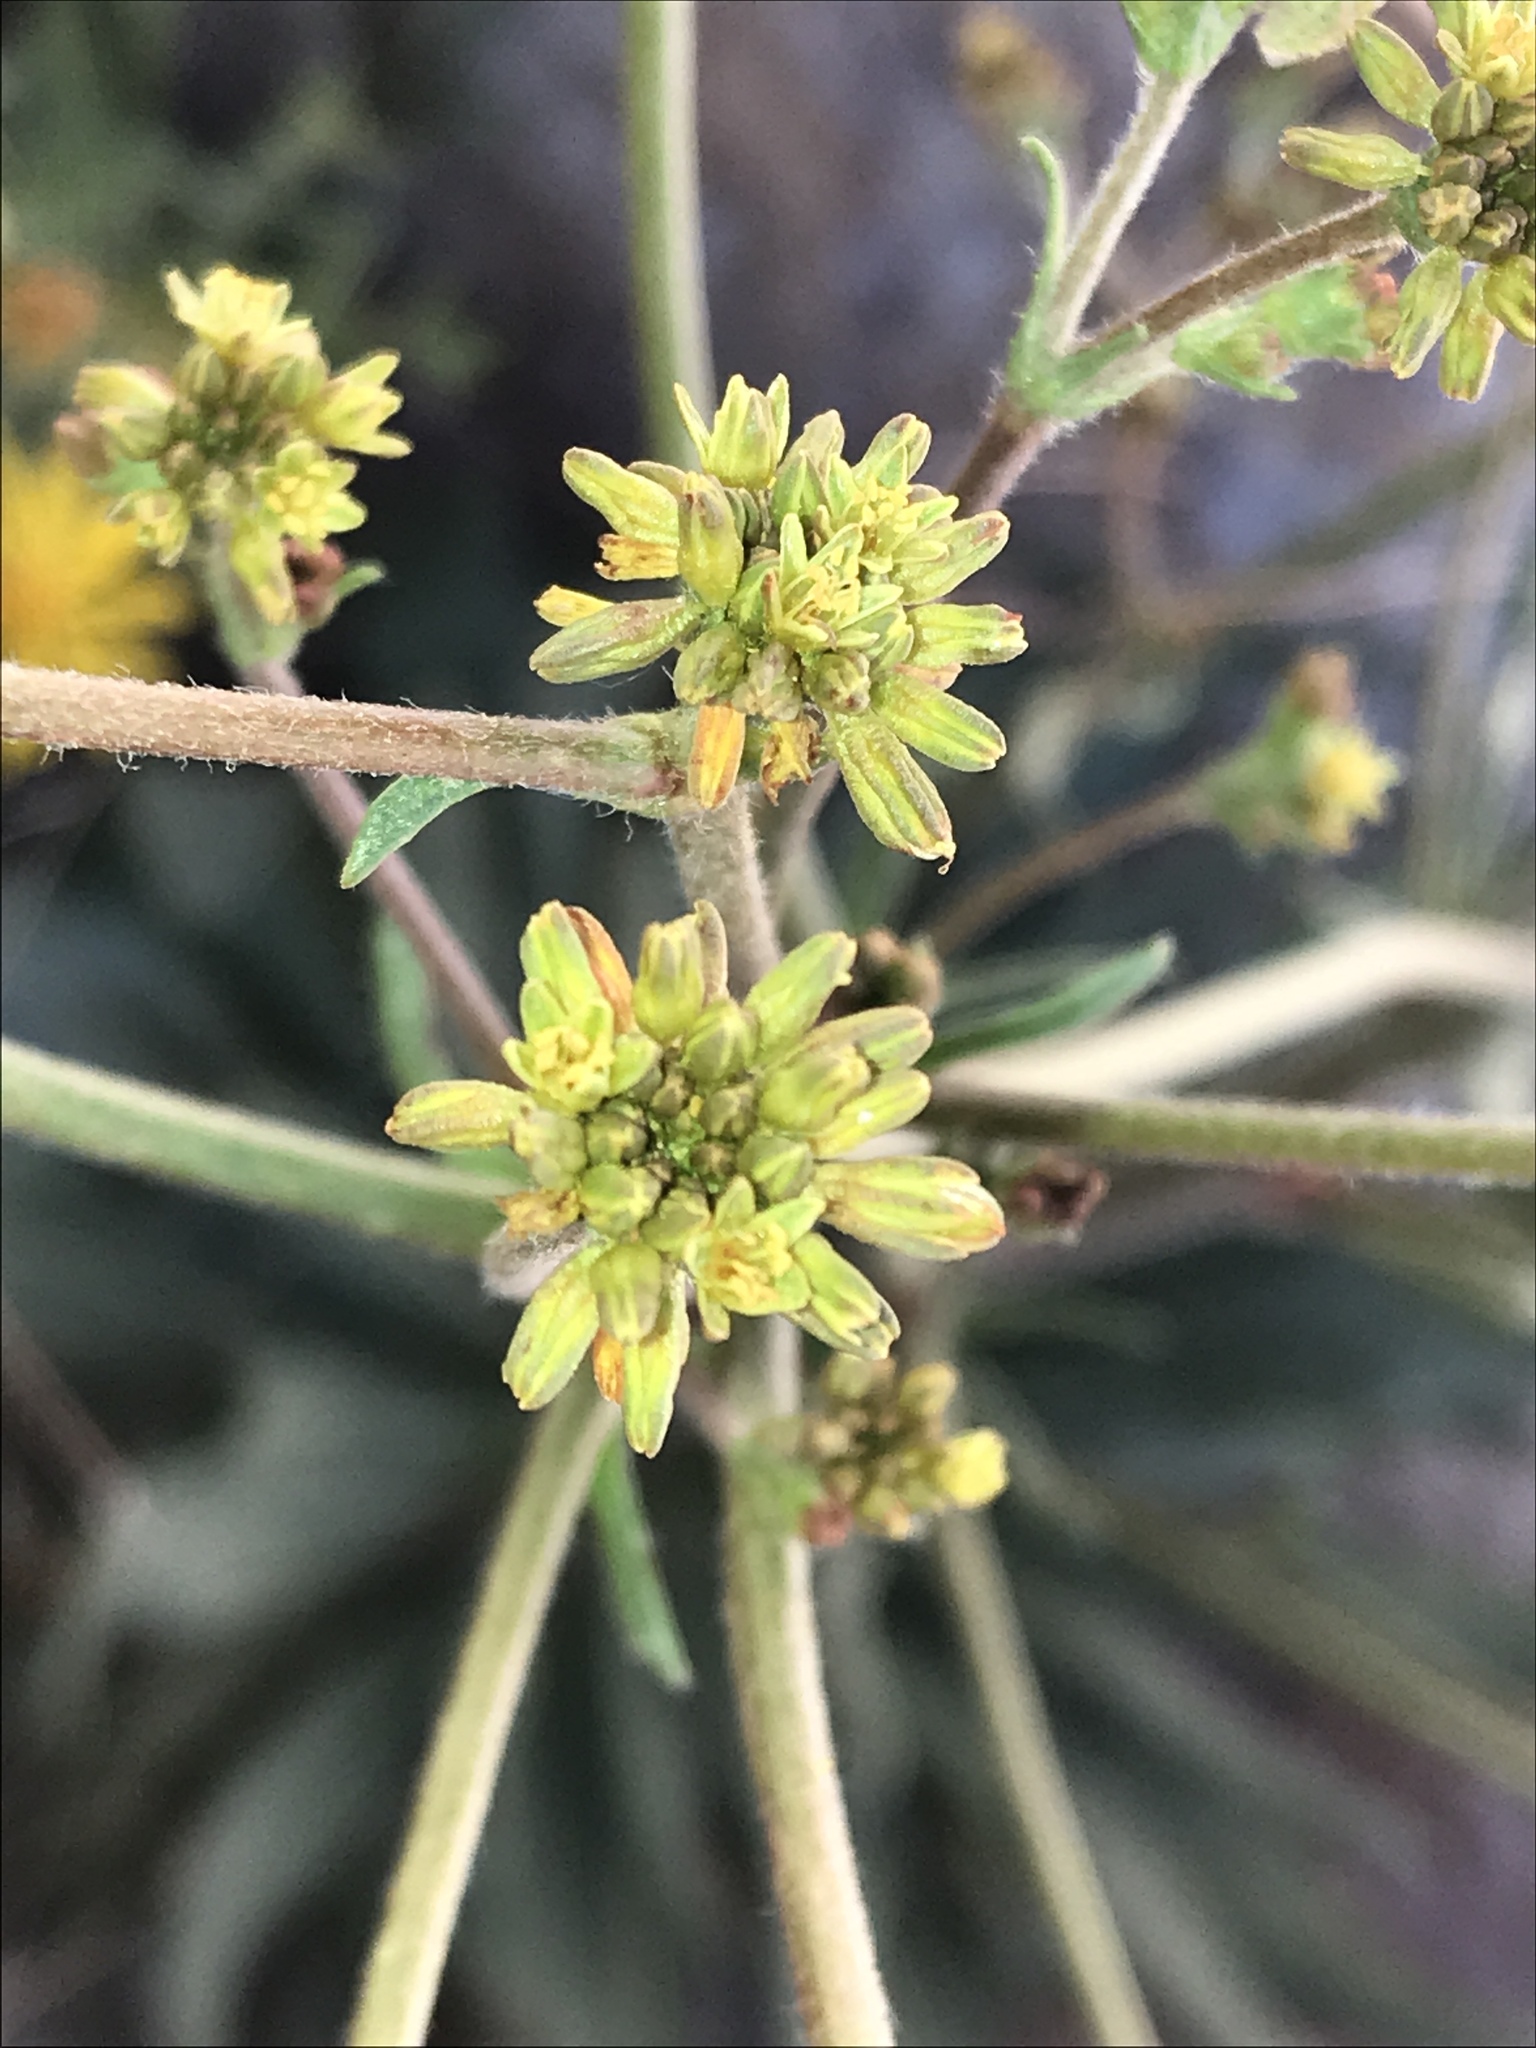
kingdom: Plantae
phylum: Tracheophyta
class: Magnoliopsida
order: Caryophyllales
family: Polygonaceae
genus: Eriogonum
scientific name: Eriogonum alatum
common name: Winged eriogonum
